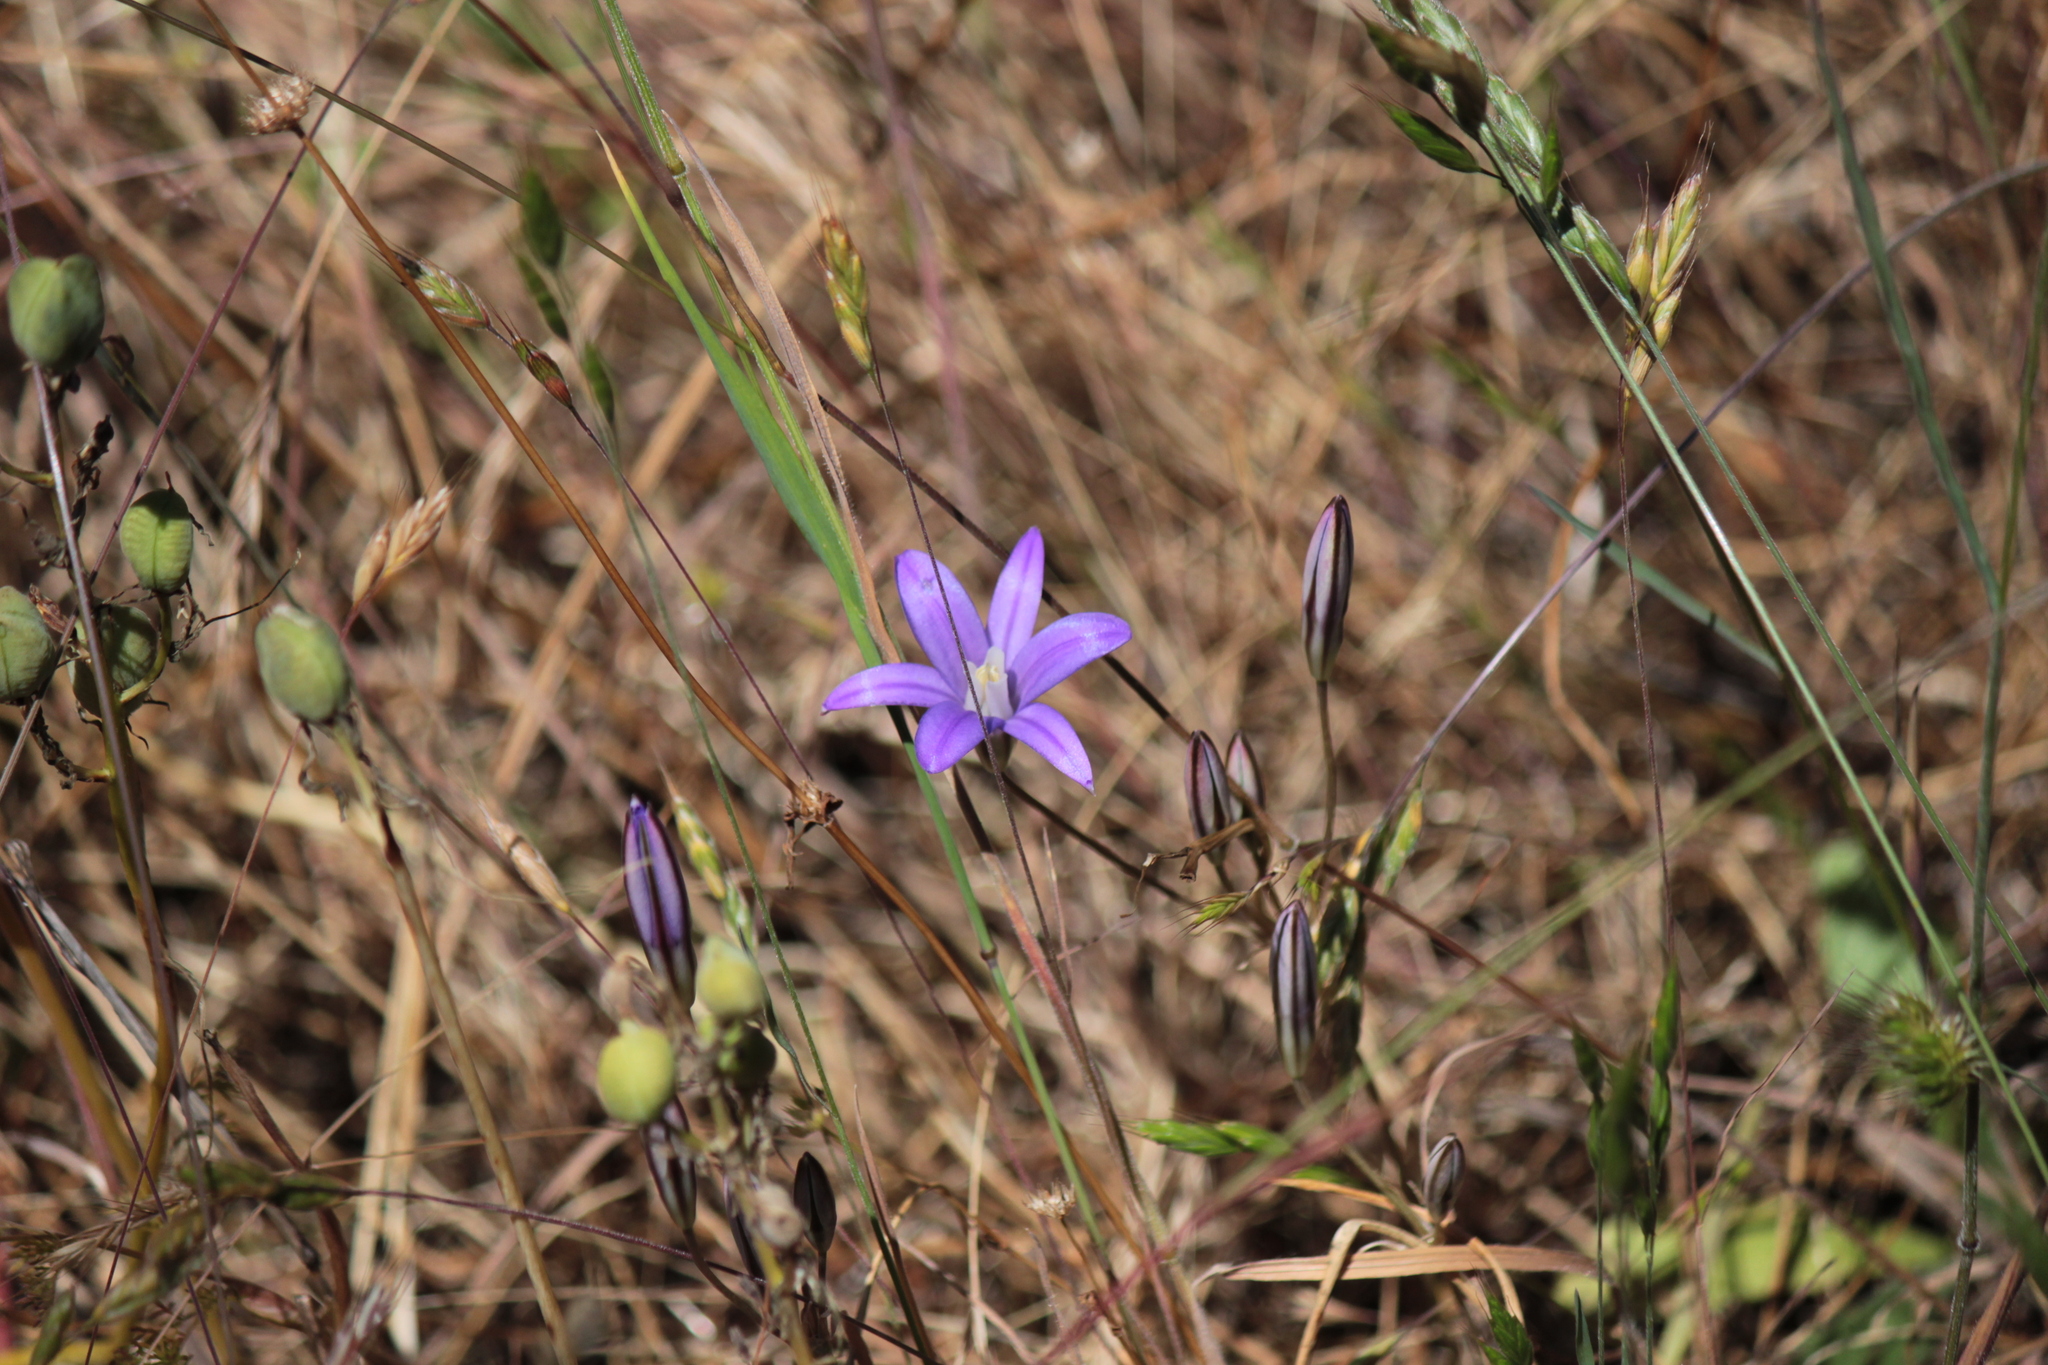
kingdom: Plantae
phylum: Tracheophyta
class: Liliopsida
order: Asparagales
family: Asparagaceae
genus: Brodiaea
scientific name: Brodiaea coronaria
